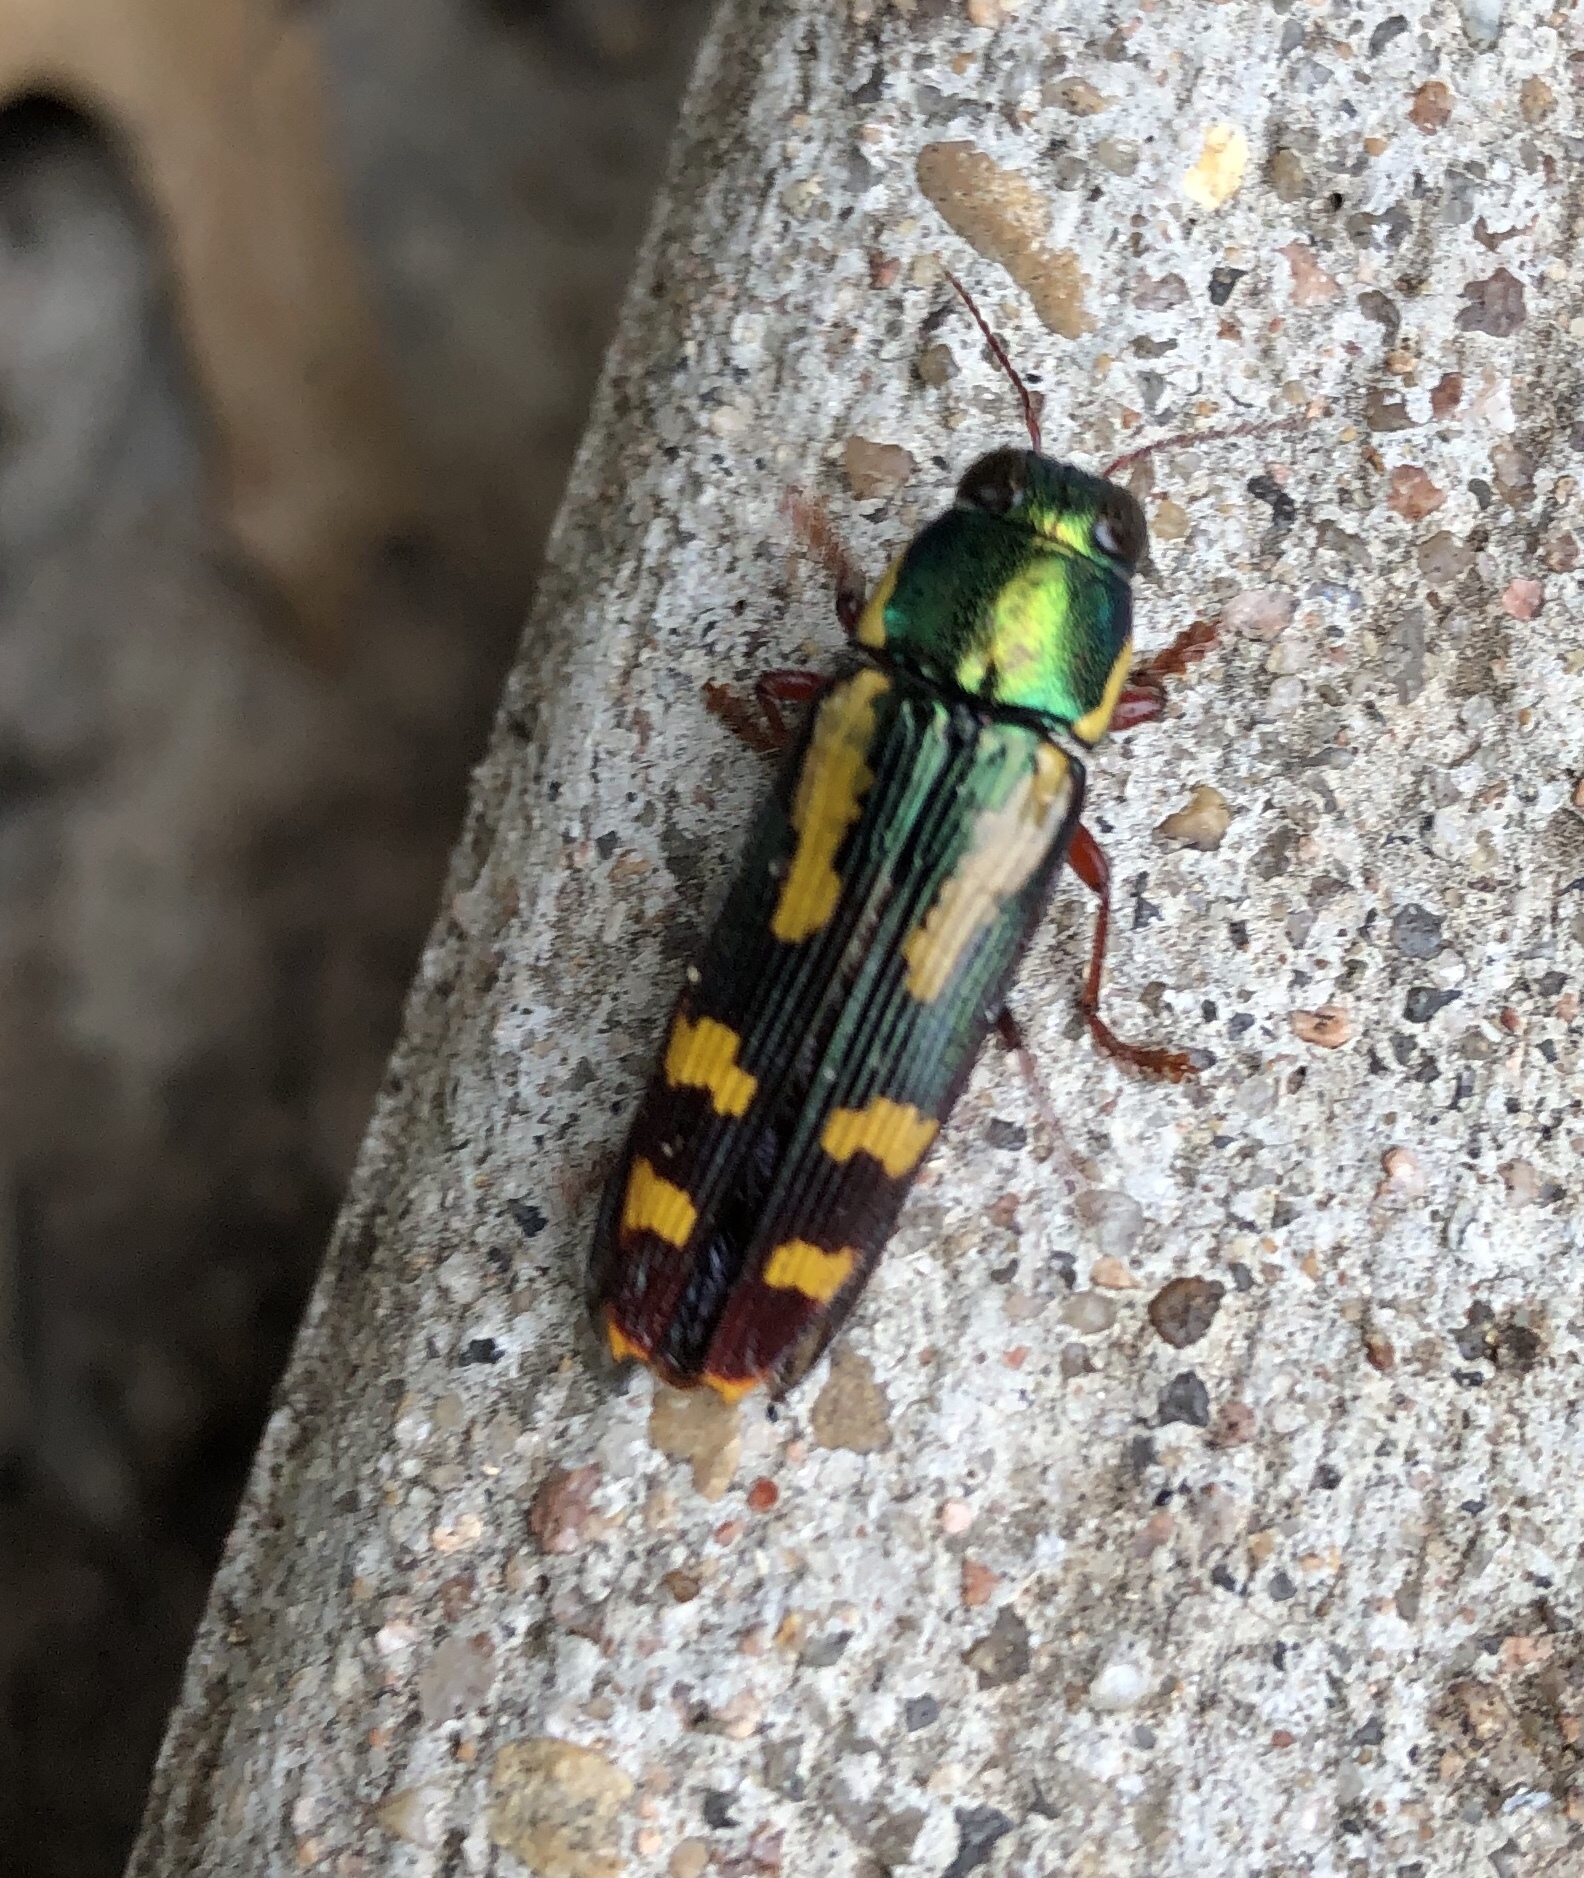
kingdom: Animalia
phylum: Arthropoda
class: Insecta
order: Coleoptera
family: Buprestidae
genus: Buprestis
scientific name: Buprestis rufipes
